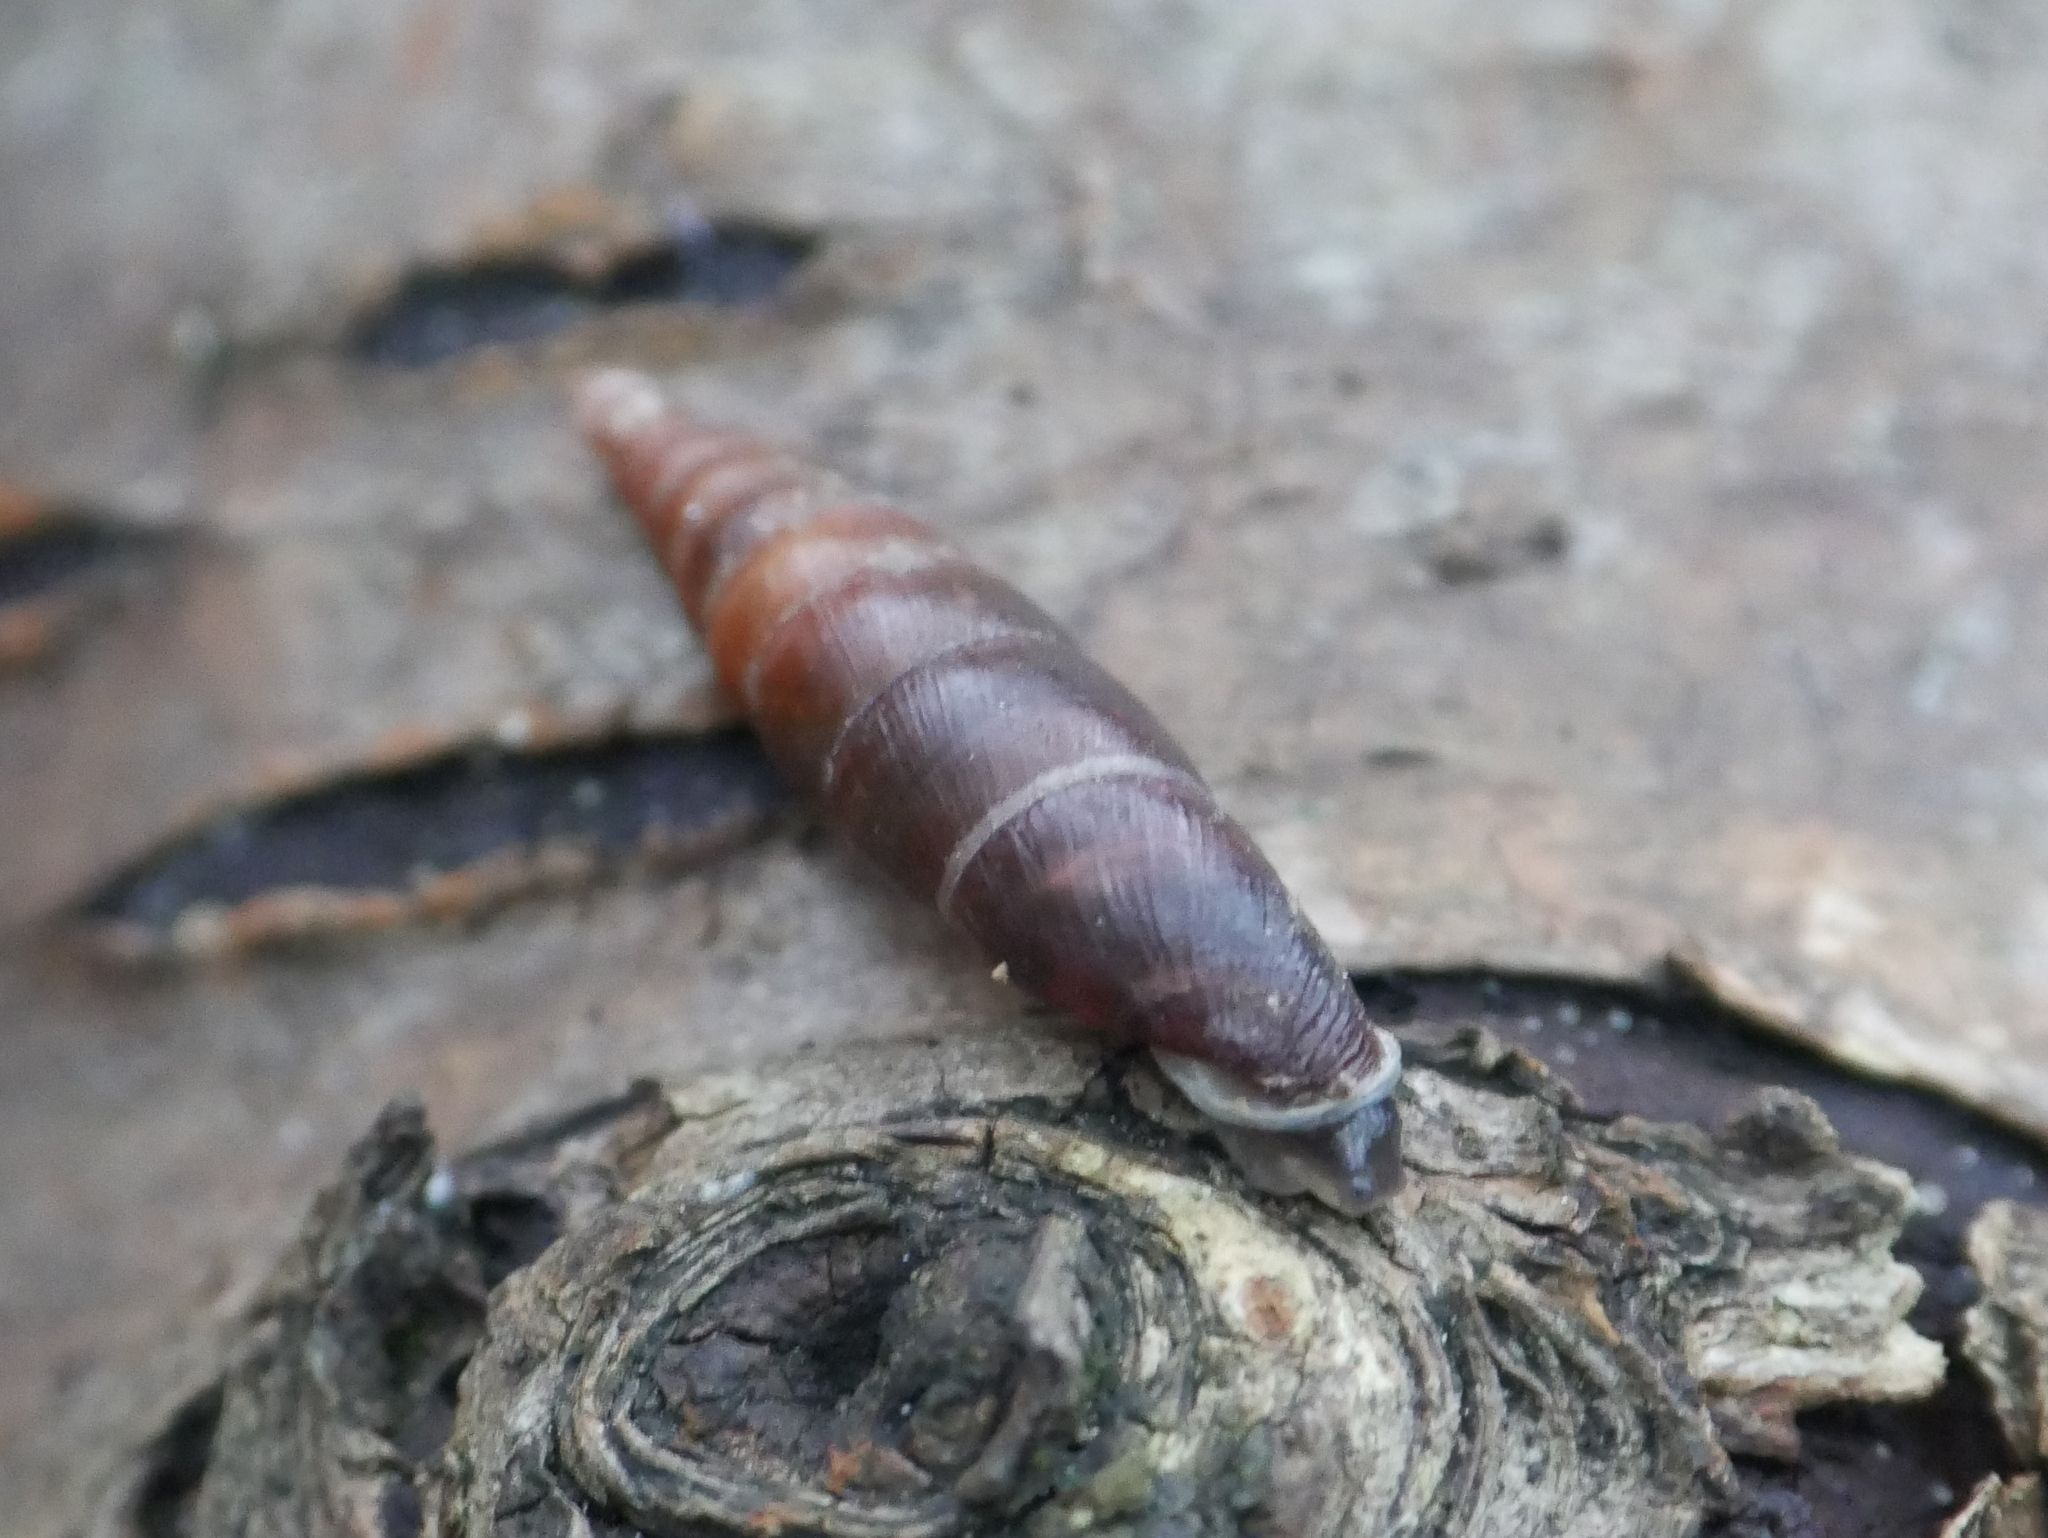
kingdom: Animalia
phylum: Mollusca
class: Gastropoda
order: Stylommatophora
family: Clausiliidae
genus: Cochlodina
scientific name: Cochlodina laminata
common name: Plaited door snail
